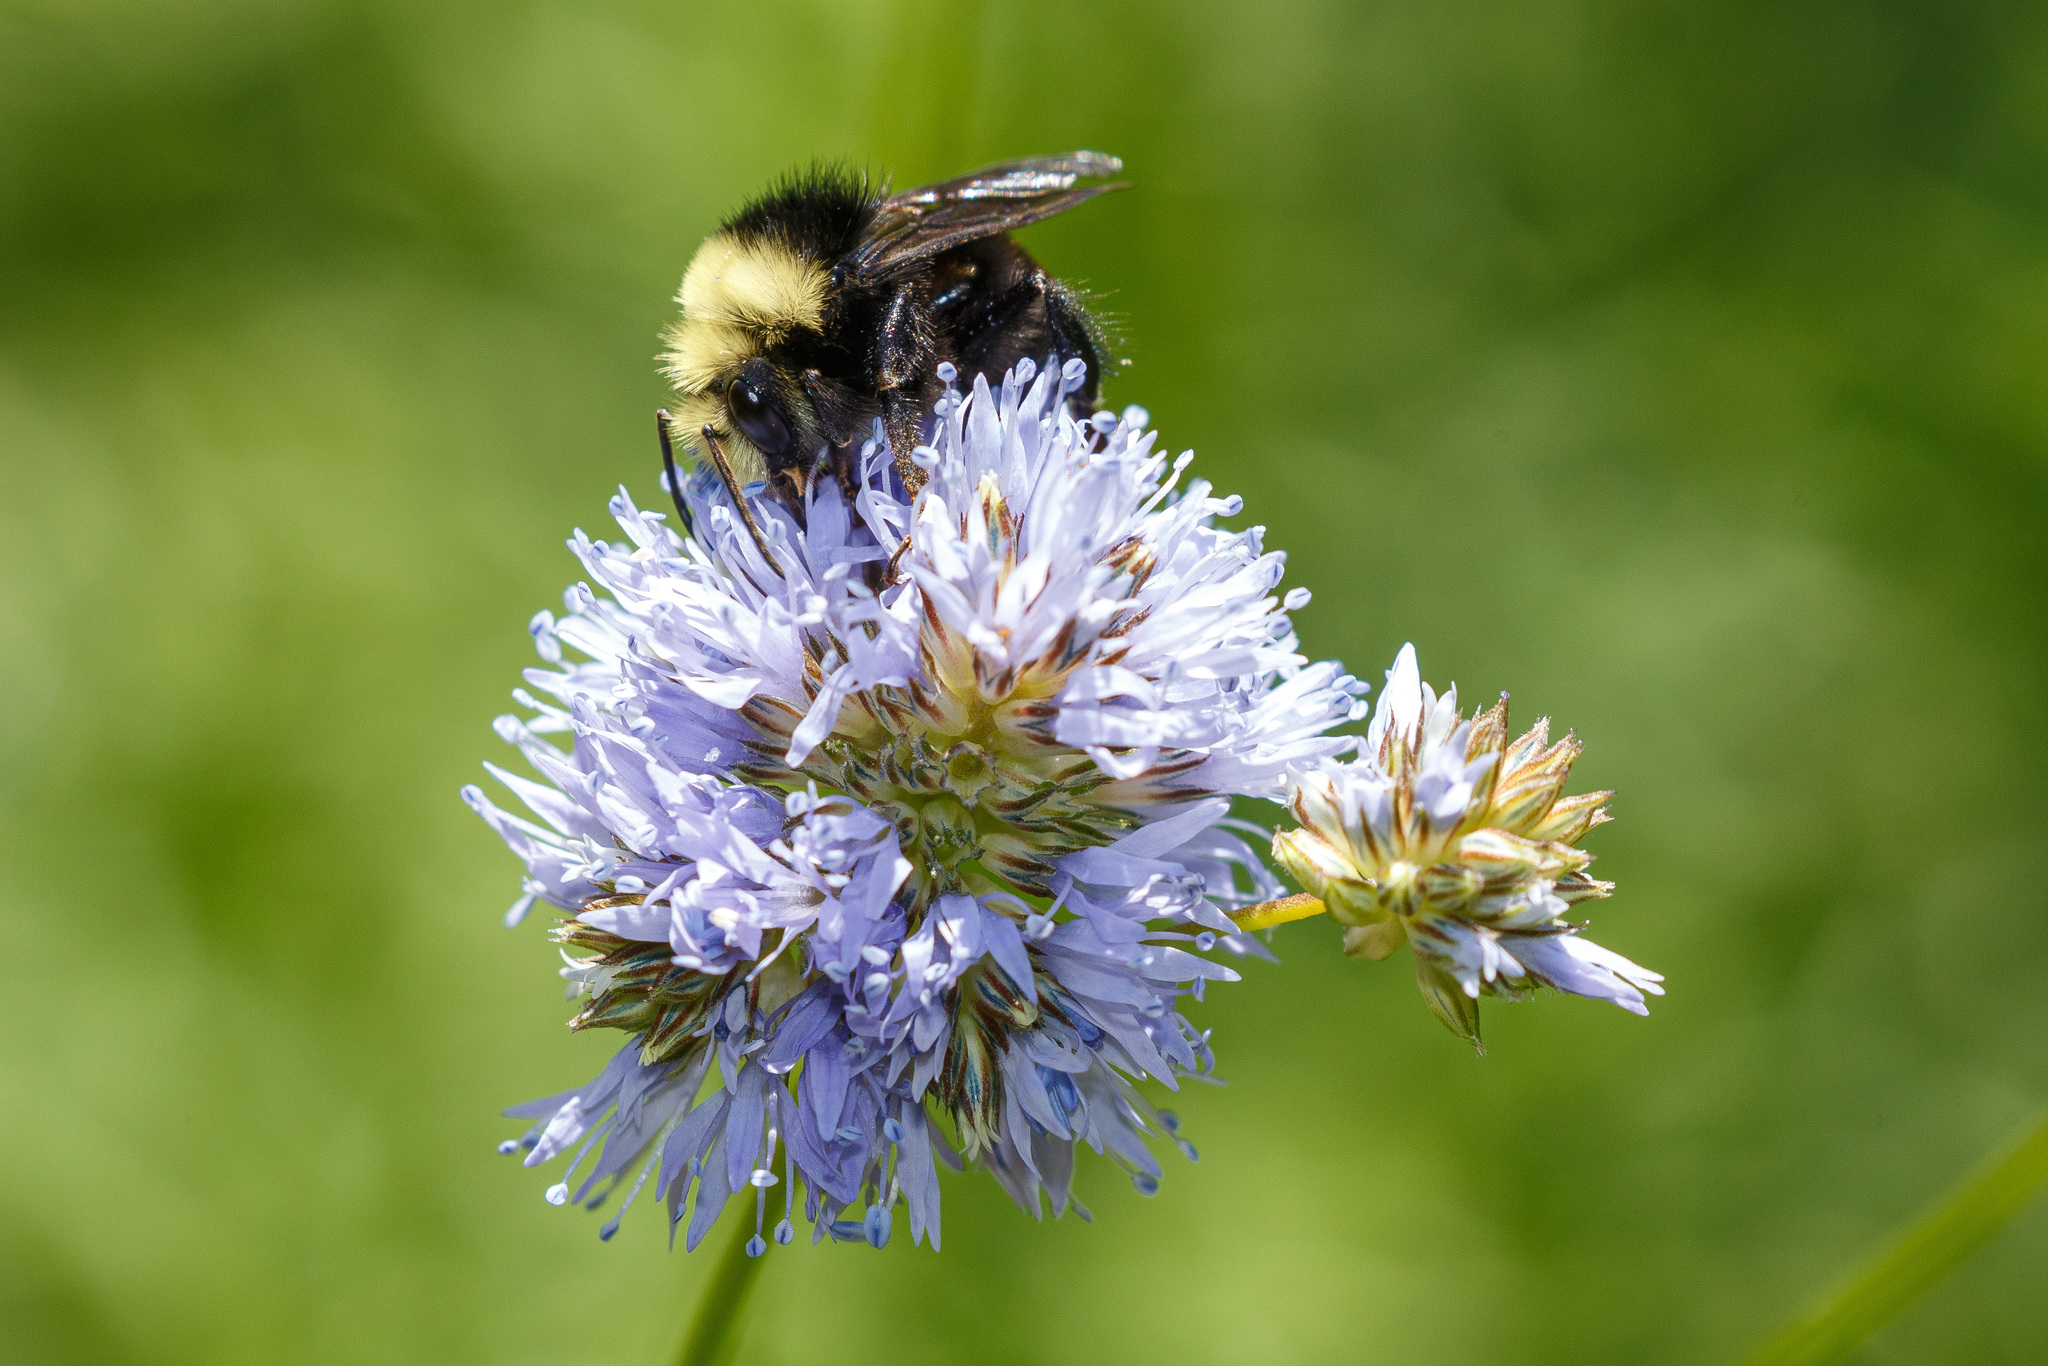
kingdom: Animalia
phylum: Arthropoda
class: Insecta
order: Hymenoptera
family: Apidae
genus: Pyrobombus
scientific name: Pyrobombus
